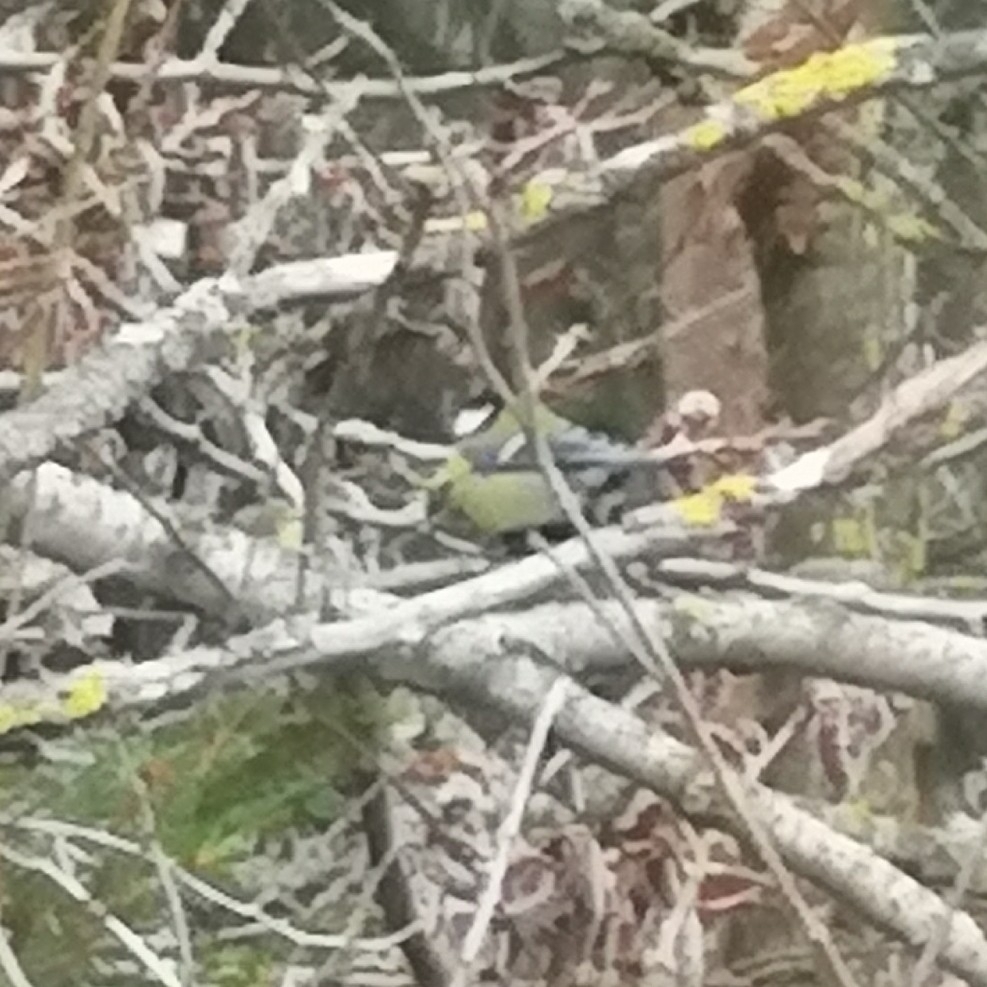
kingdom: Animalia
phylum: Chordata
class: Aves
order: Passeriformes
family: Paridae
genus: Parus
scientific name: Parus major
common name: Great tit
